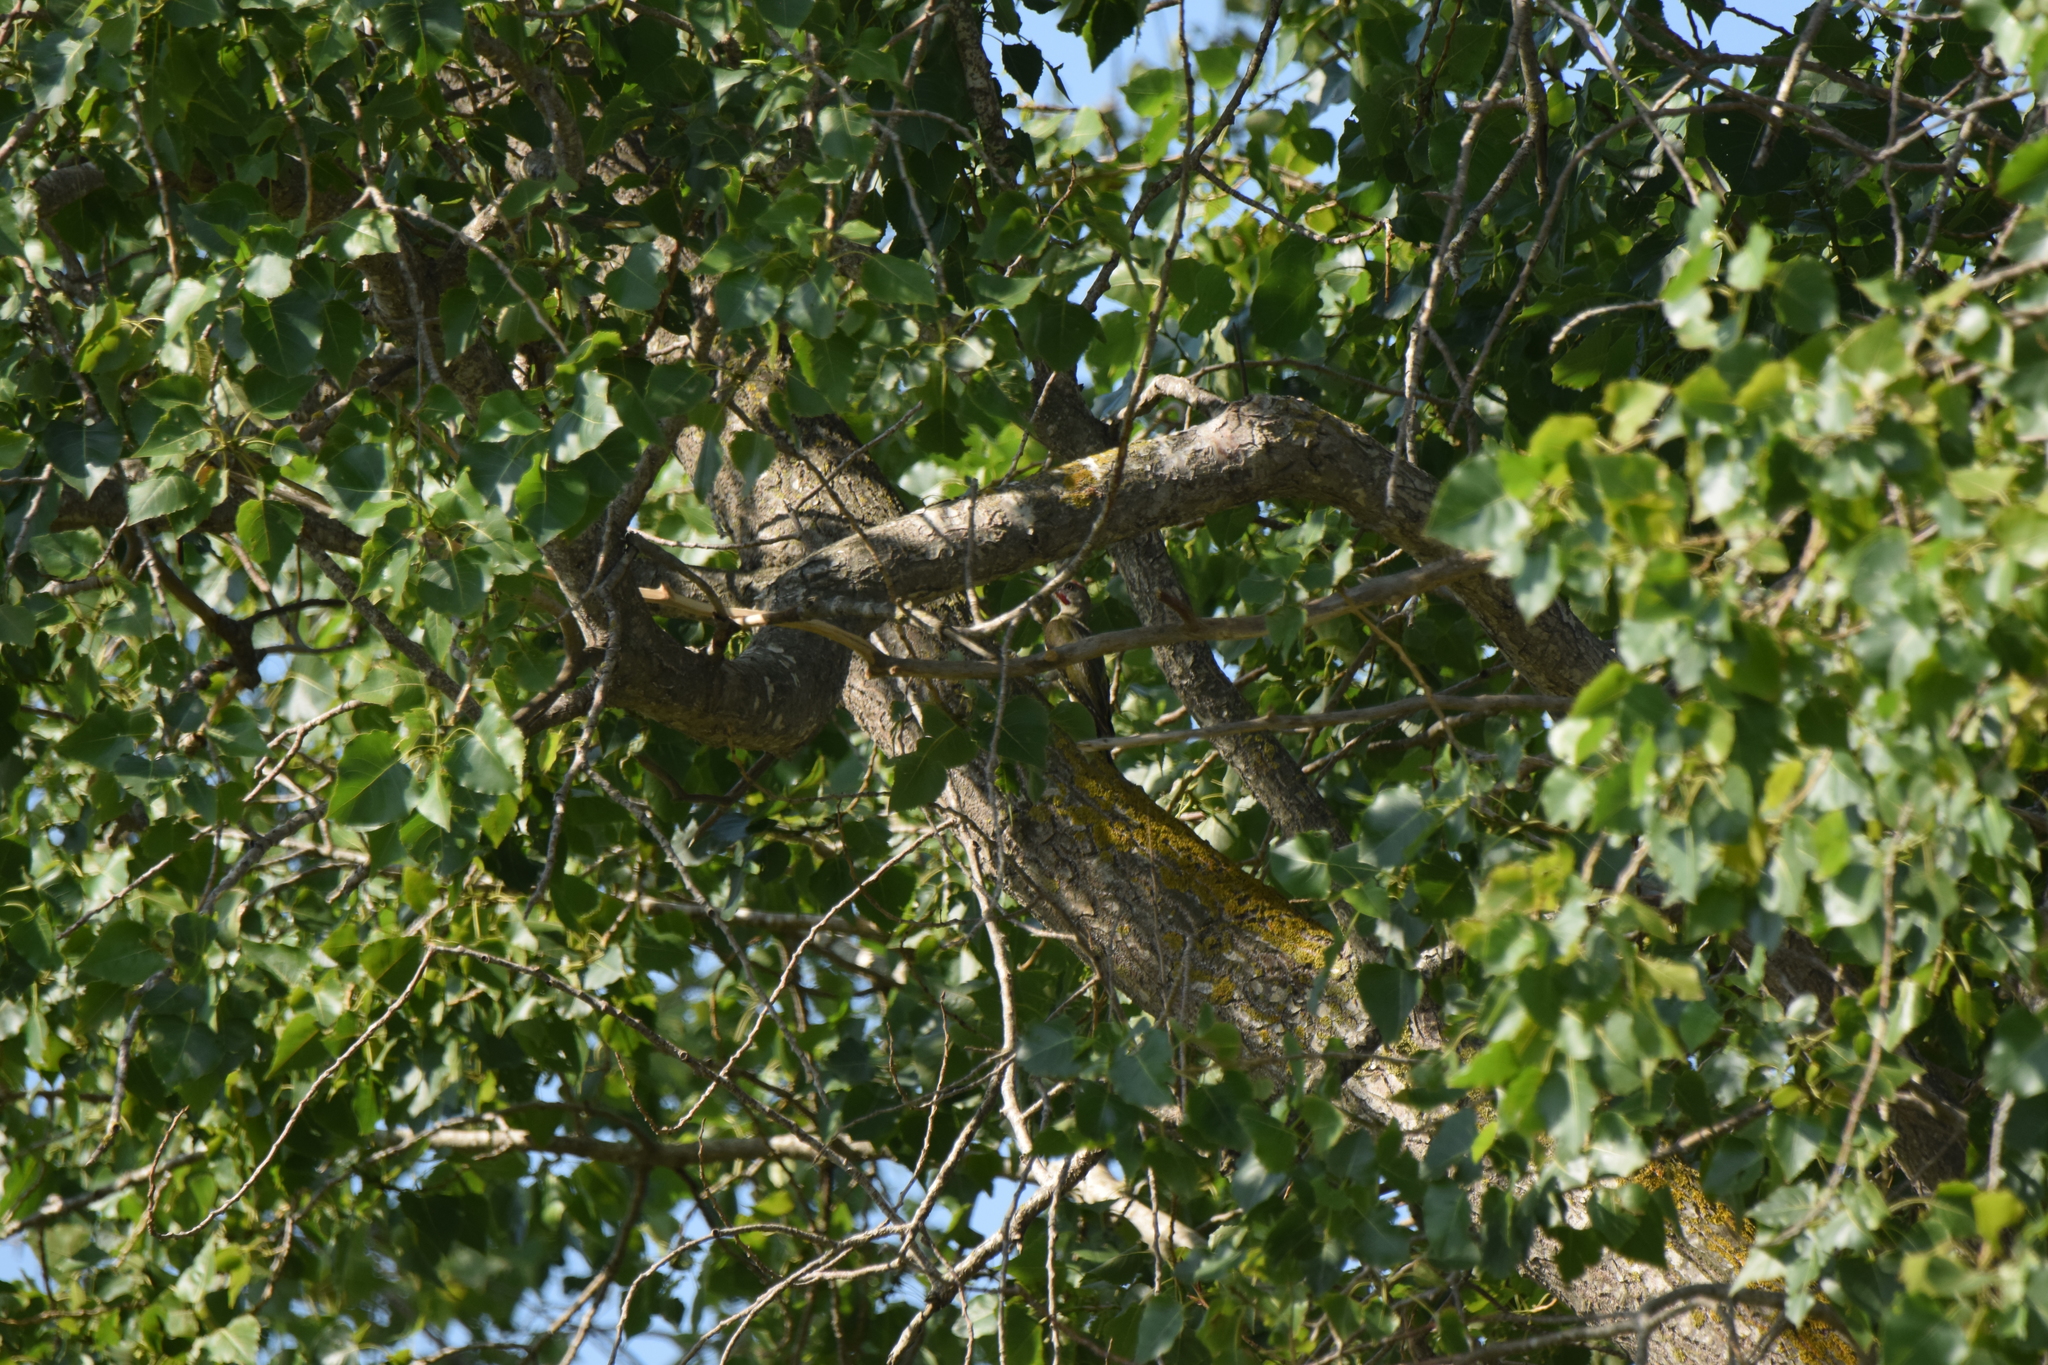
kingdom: Animalia
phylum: Chordata
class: Aves
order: Piciformes
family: Picidae
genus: Picus
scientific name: Picus sharpei
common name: Iberian green woodpecker
